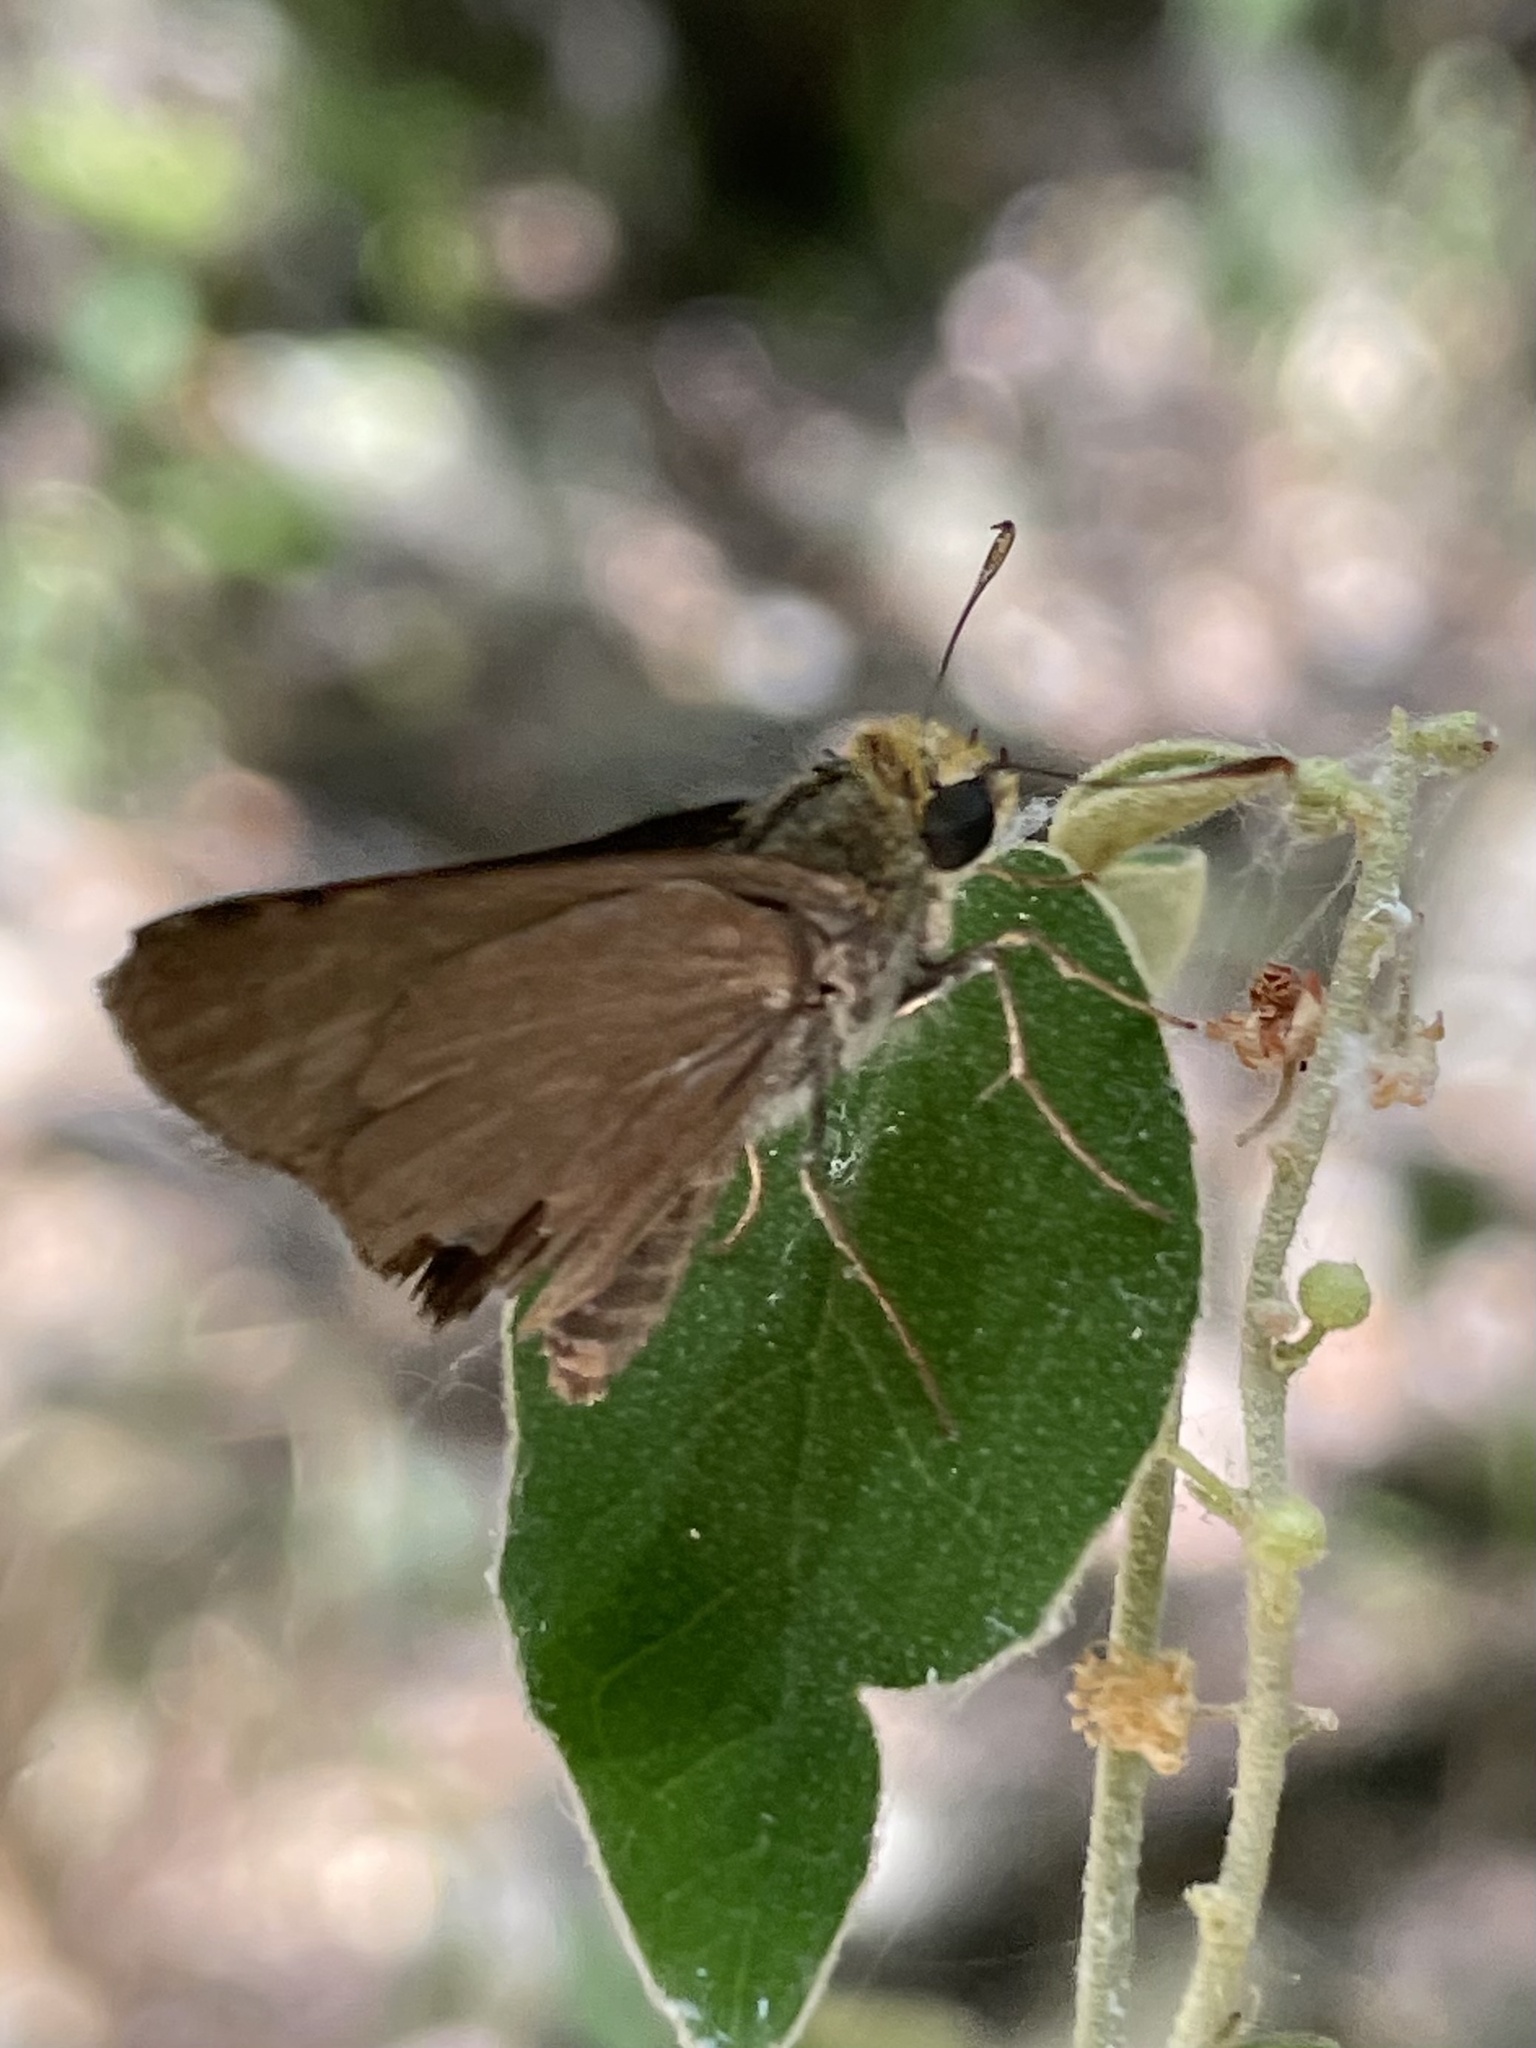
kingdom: Animalia
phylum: Arthropoda
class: Insecta
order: Lepidoptera
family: Hesperiidae
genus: Euphyes
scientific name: Euphyes vestris
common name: Dun skipper
